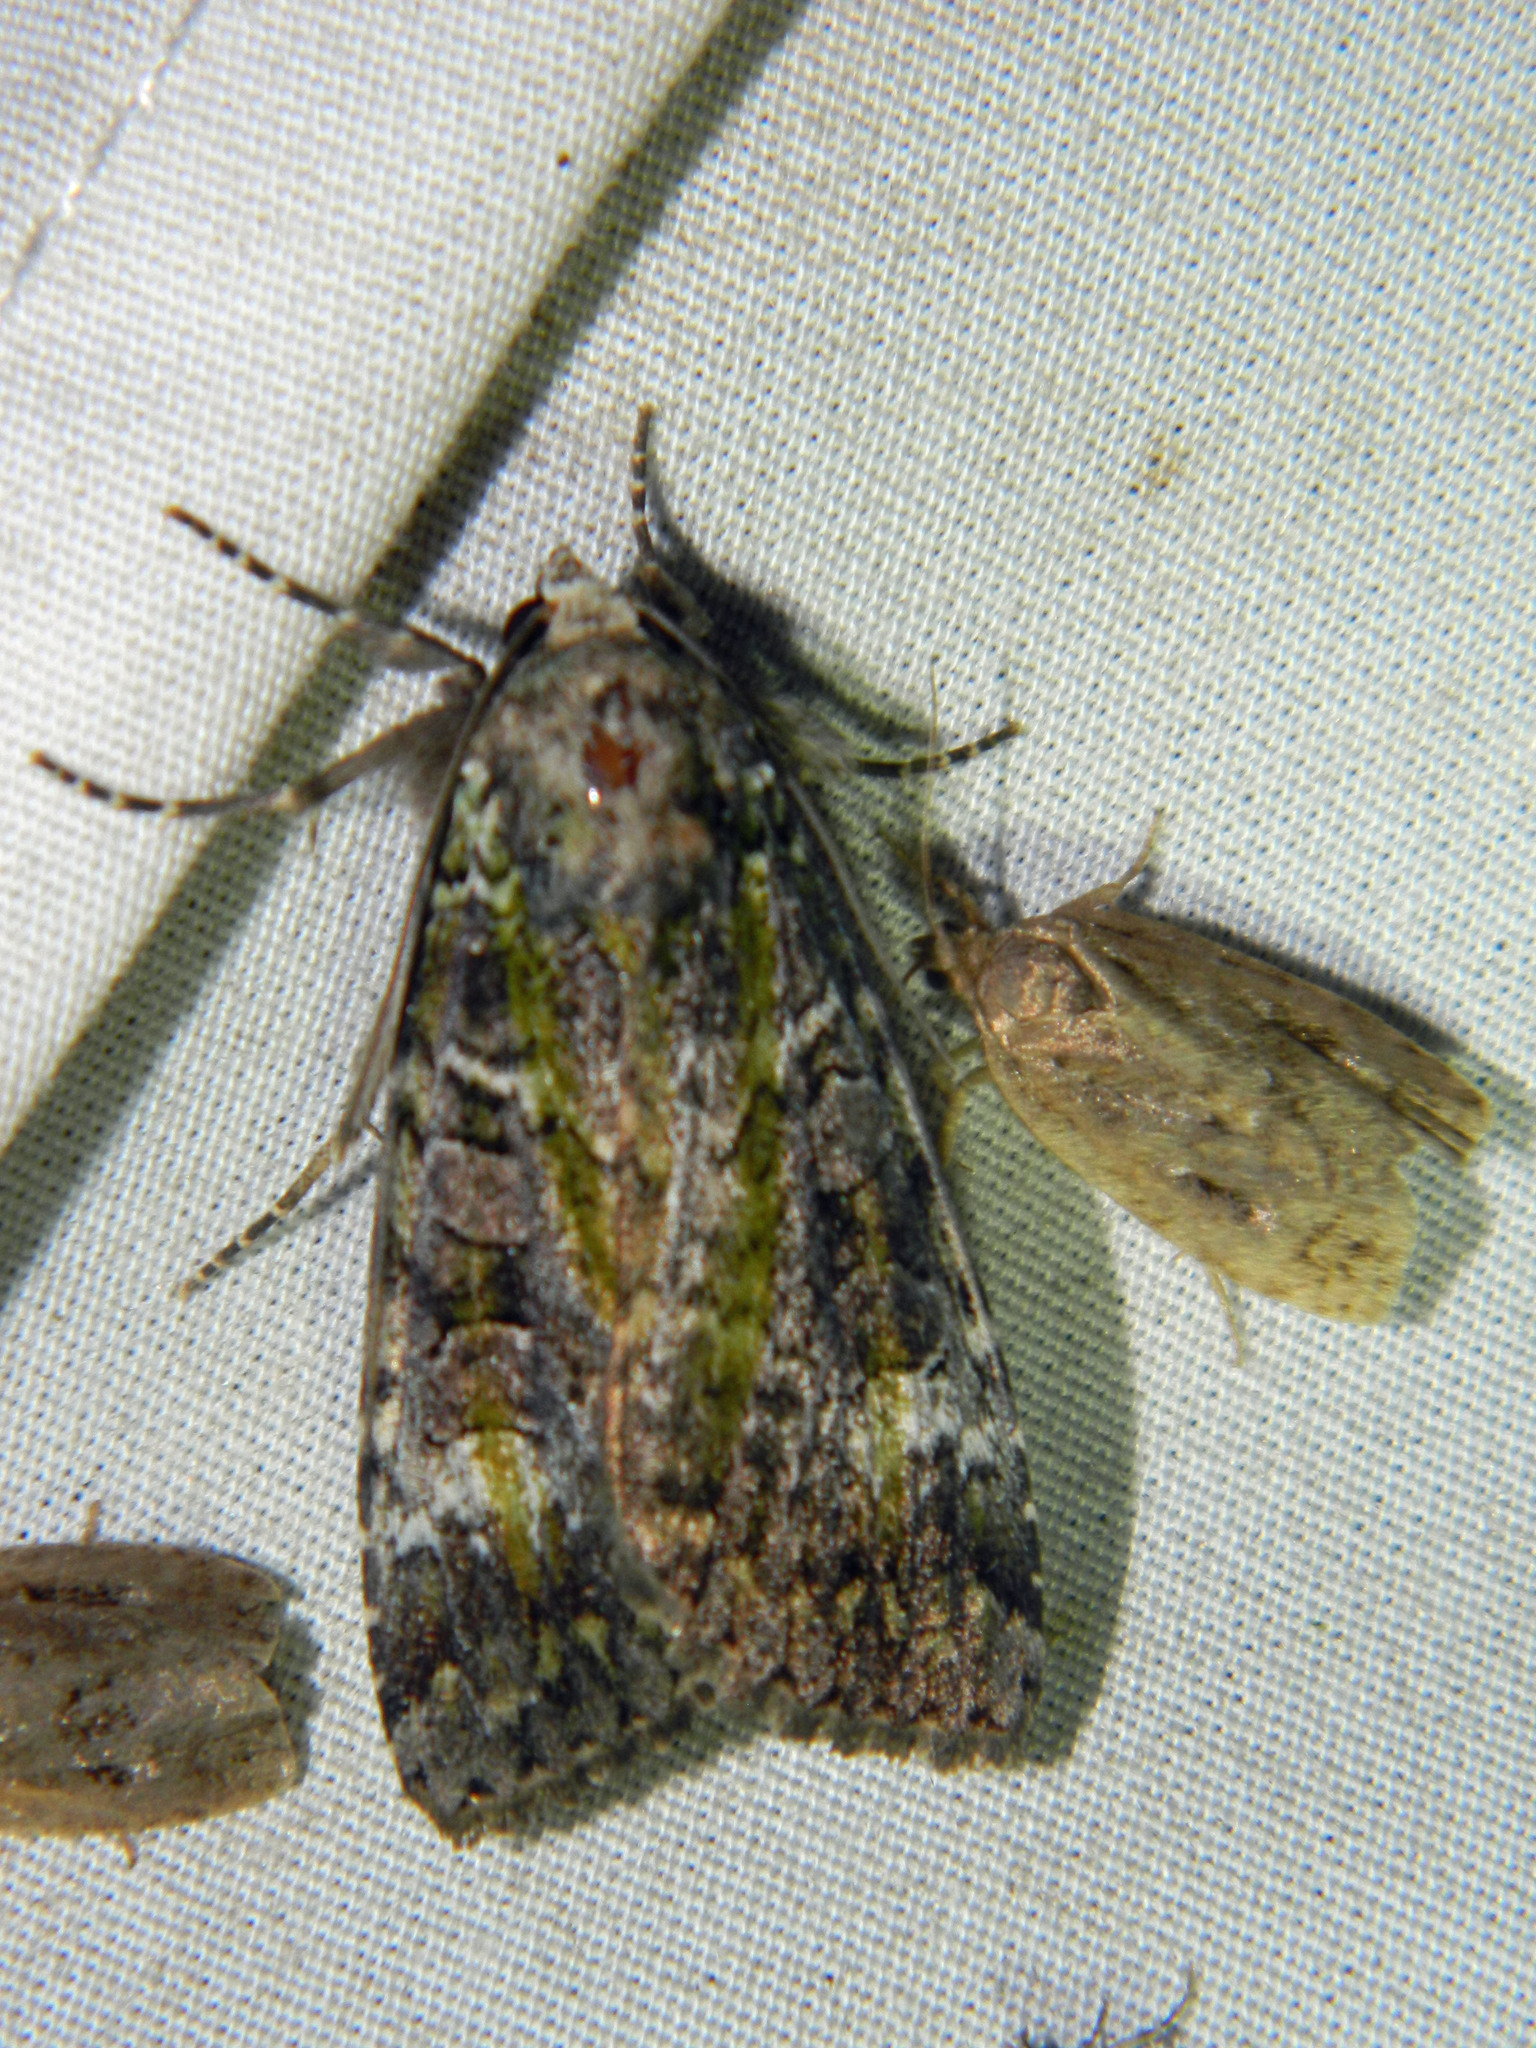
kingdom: Animalia
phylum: Arthropoda
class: Insecta
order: Lepidoptera
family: Noctuidae
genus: Anaplectoides
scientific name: Anaplectoides prasina
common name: Green arches
